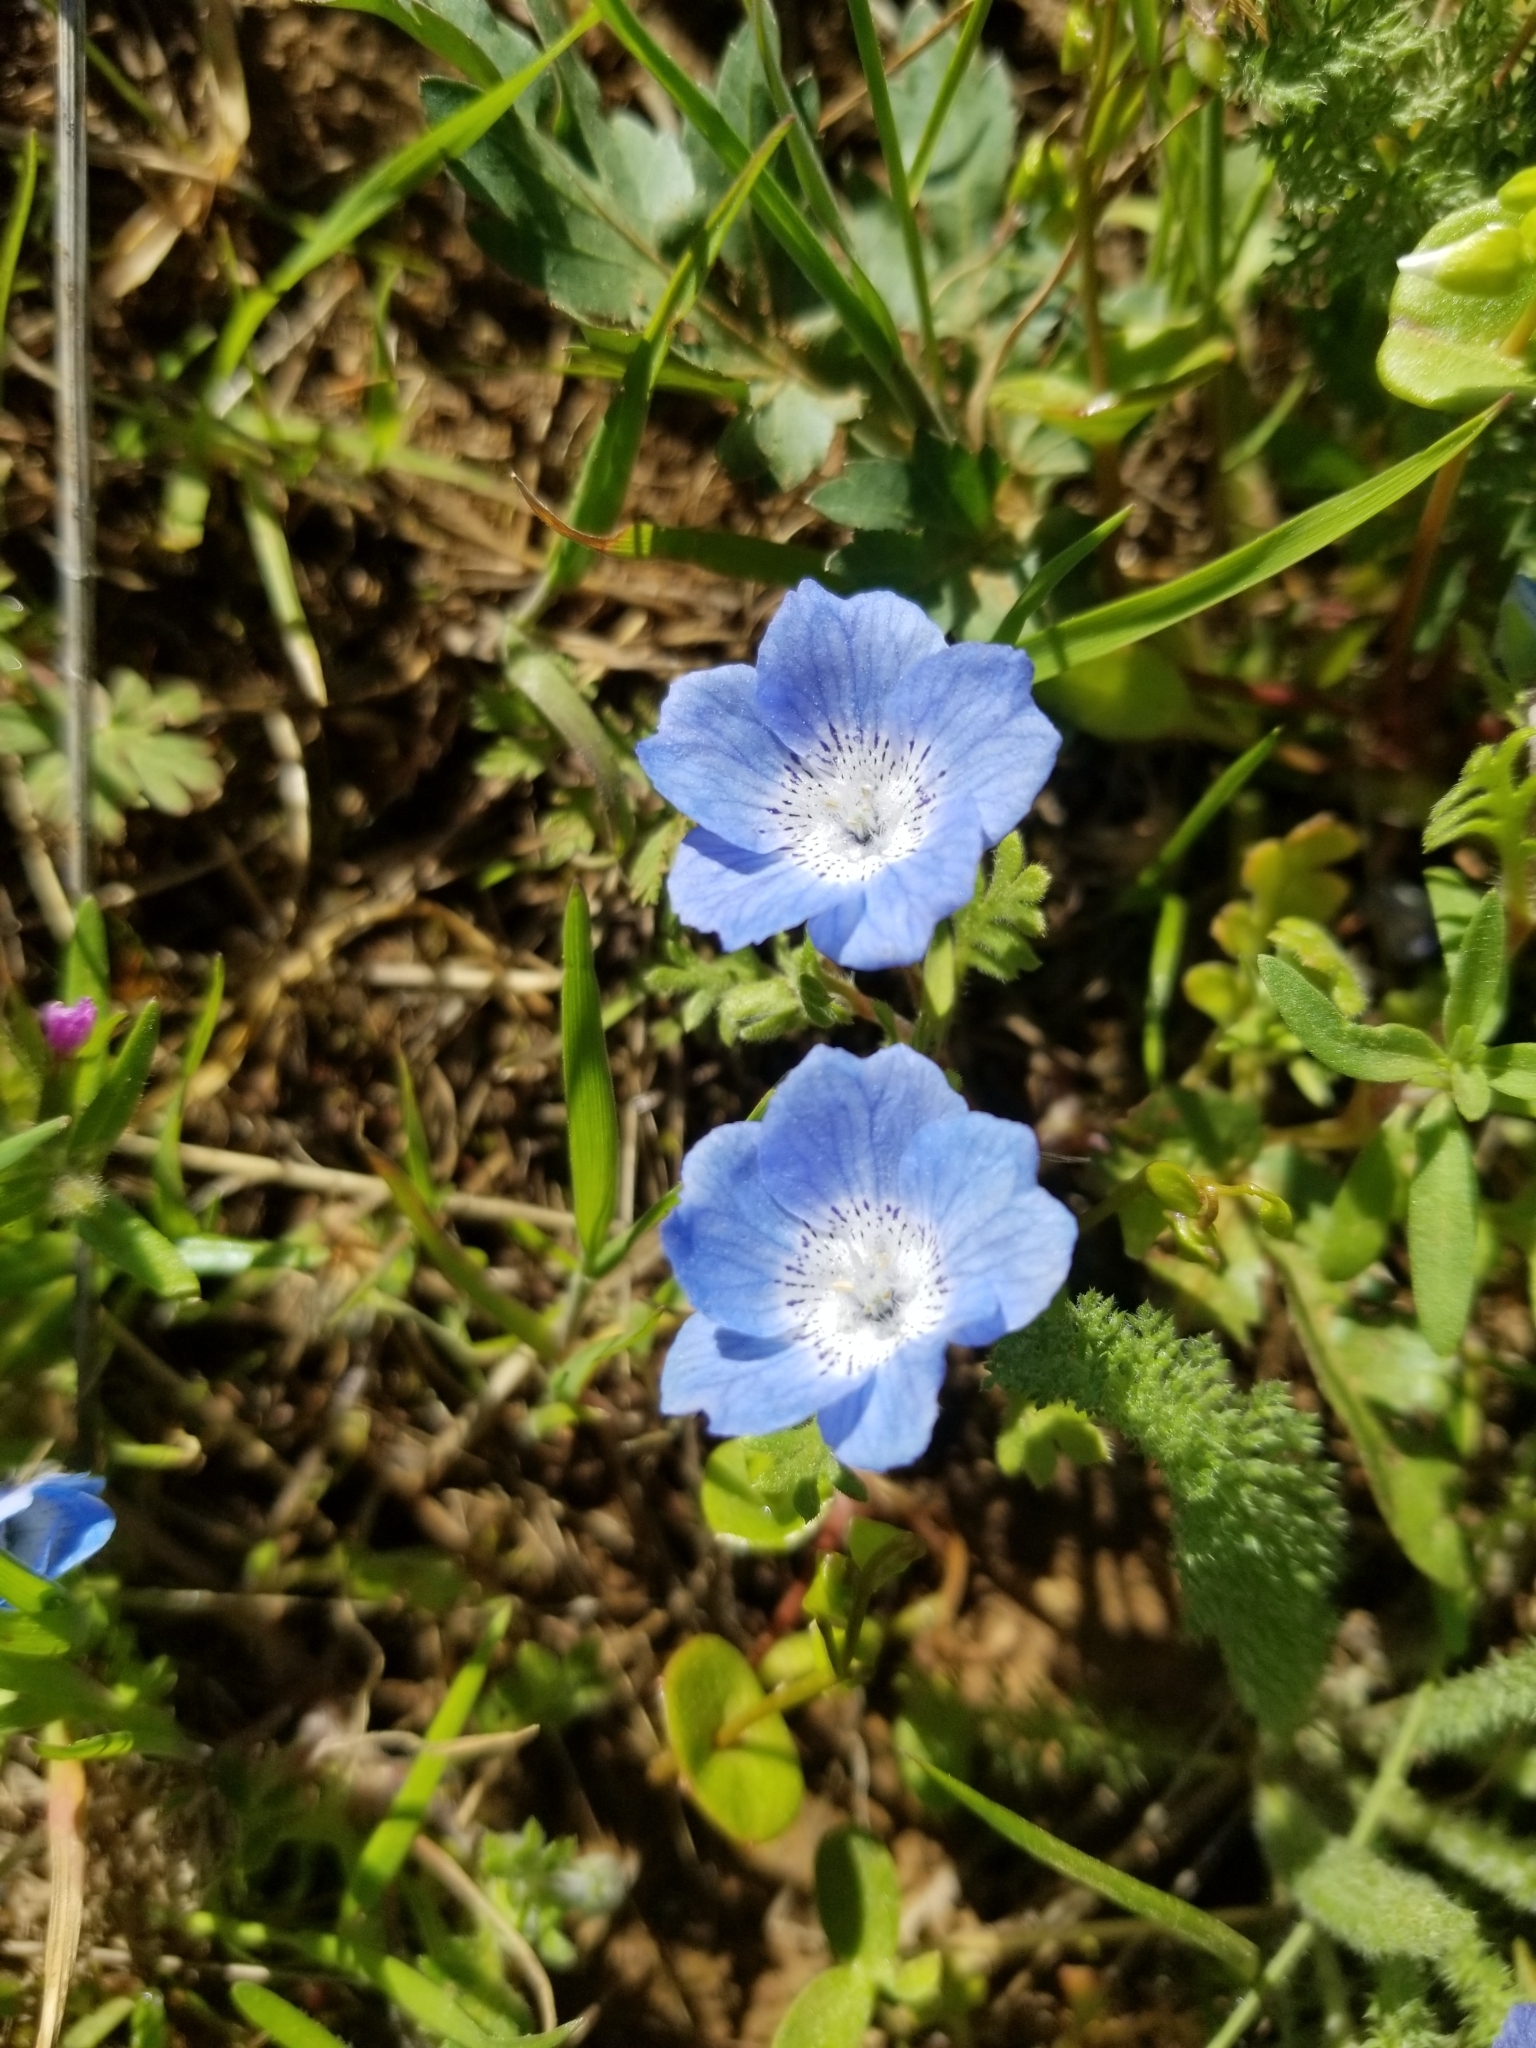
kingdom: Plantae
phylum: Tracheophyta
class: Magnoliopsida
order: Boraginales
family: Hydrophyllaceae
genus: Nemophila
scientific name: Nemophila menziesii
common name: Baby's-blue-eyes
